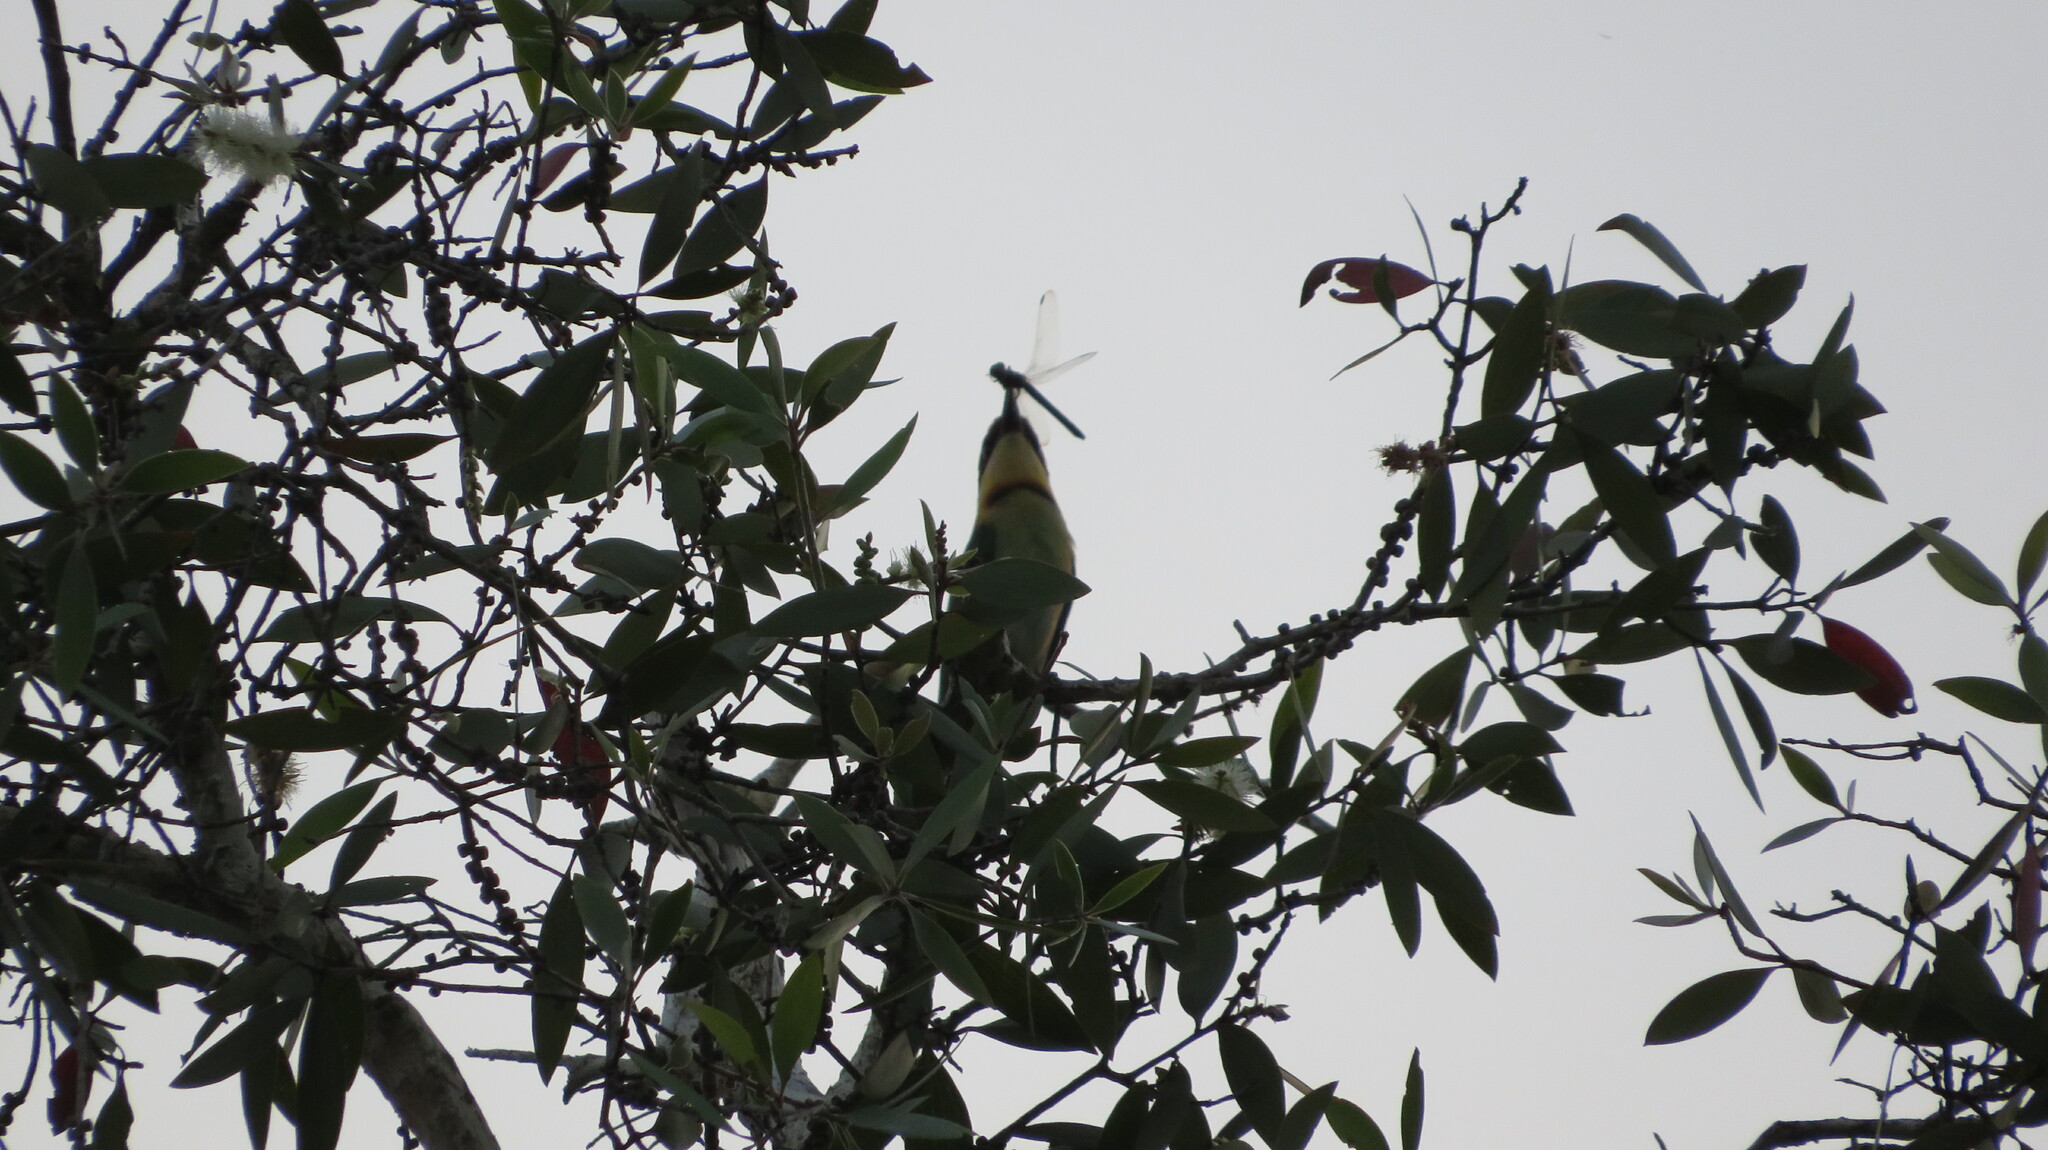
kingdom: Animalia
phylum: Chordata
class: Aves
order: Coraciiformes
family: Meropidae
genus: Merops
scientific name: Merops leschenaulti
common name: Chestnut-headed bee-eater
